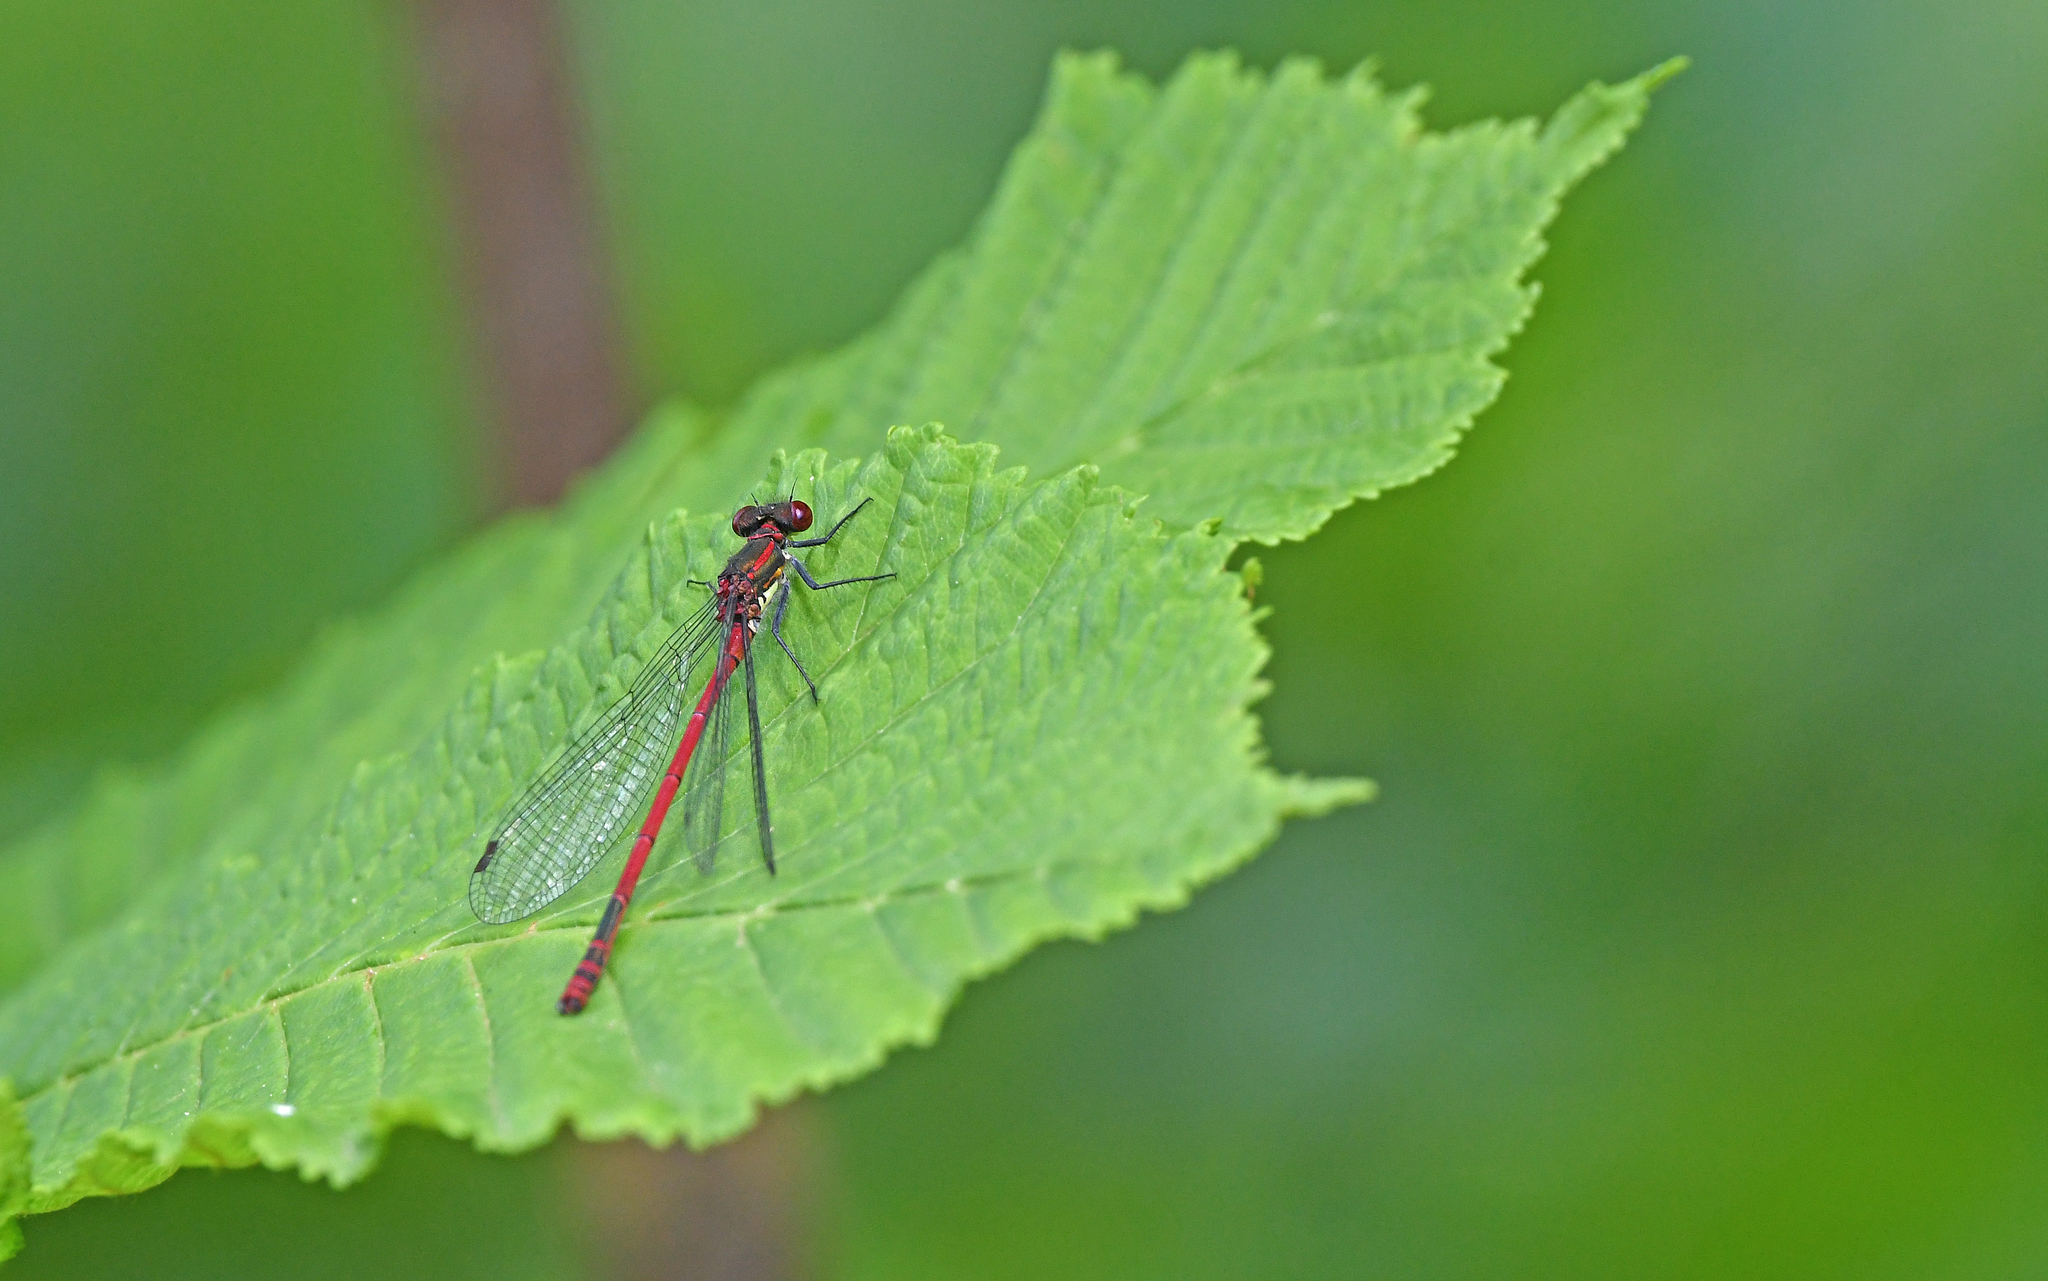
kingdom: Animalia
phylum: Arthropoda
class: Insecta
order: Odonata
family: Coenagrionidae
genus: Pyrrhosoma
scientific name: Pyrrhosoma nymphula
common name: Large red damsel
